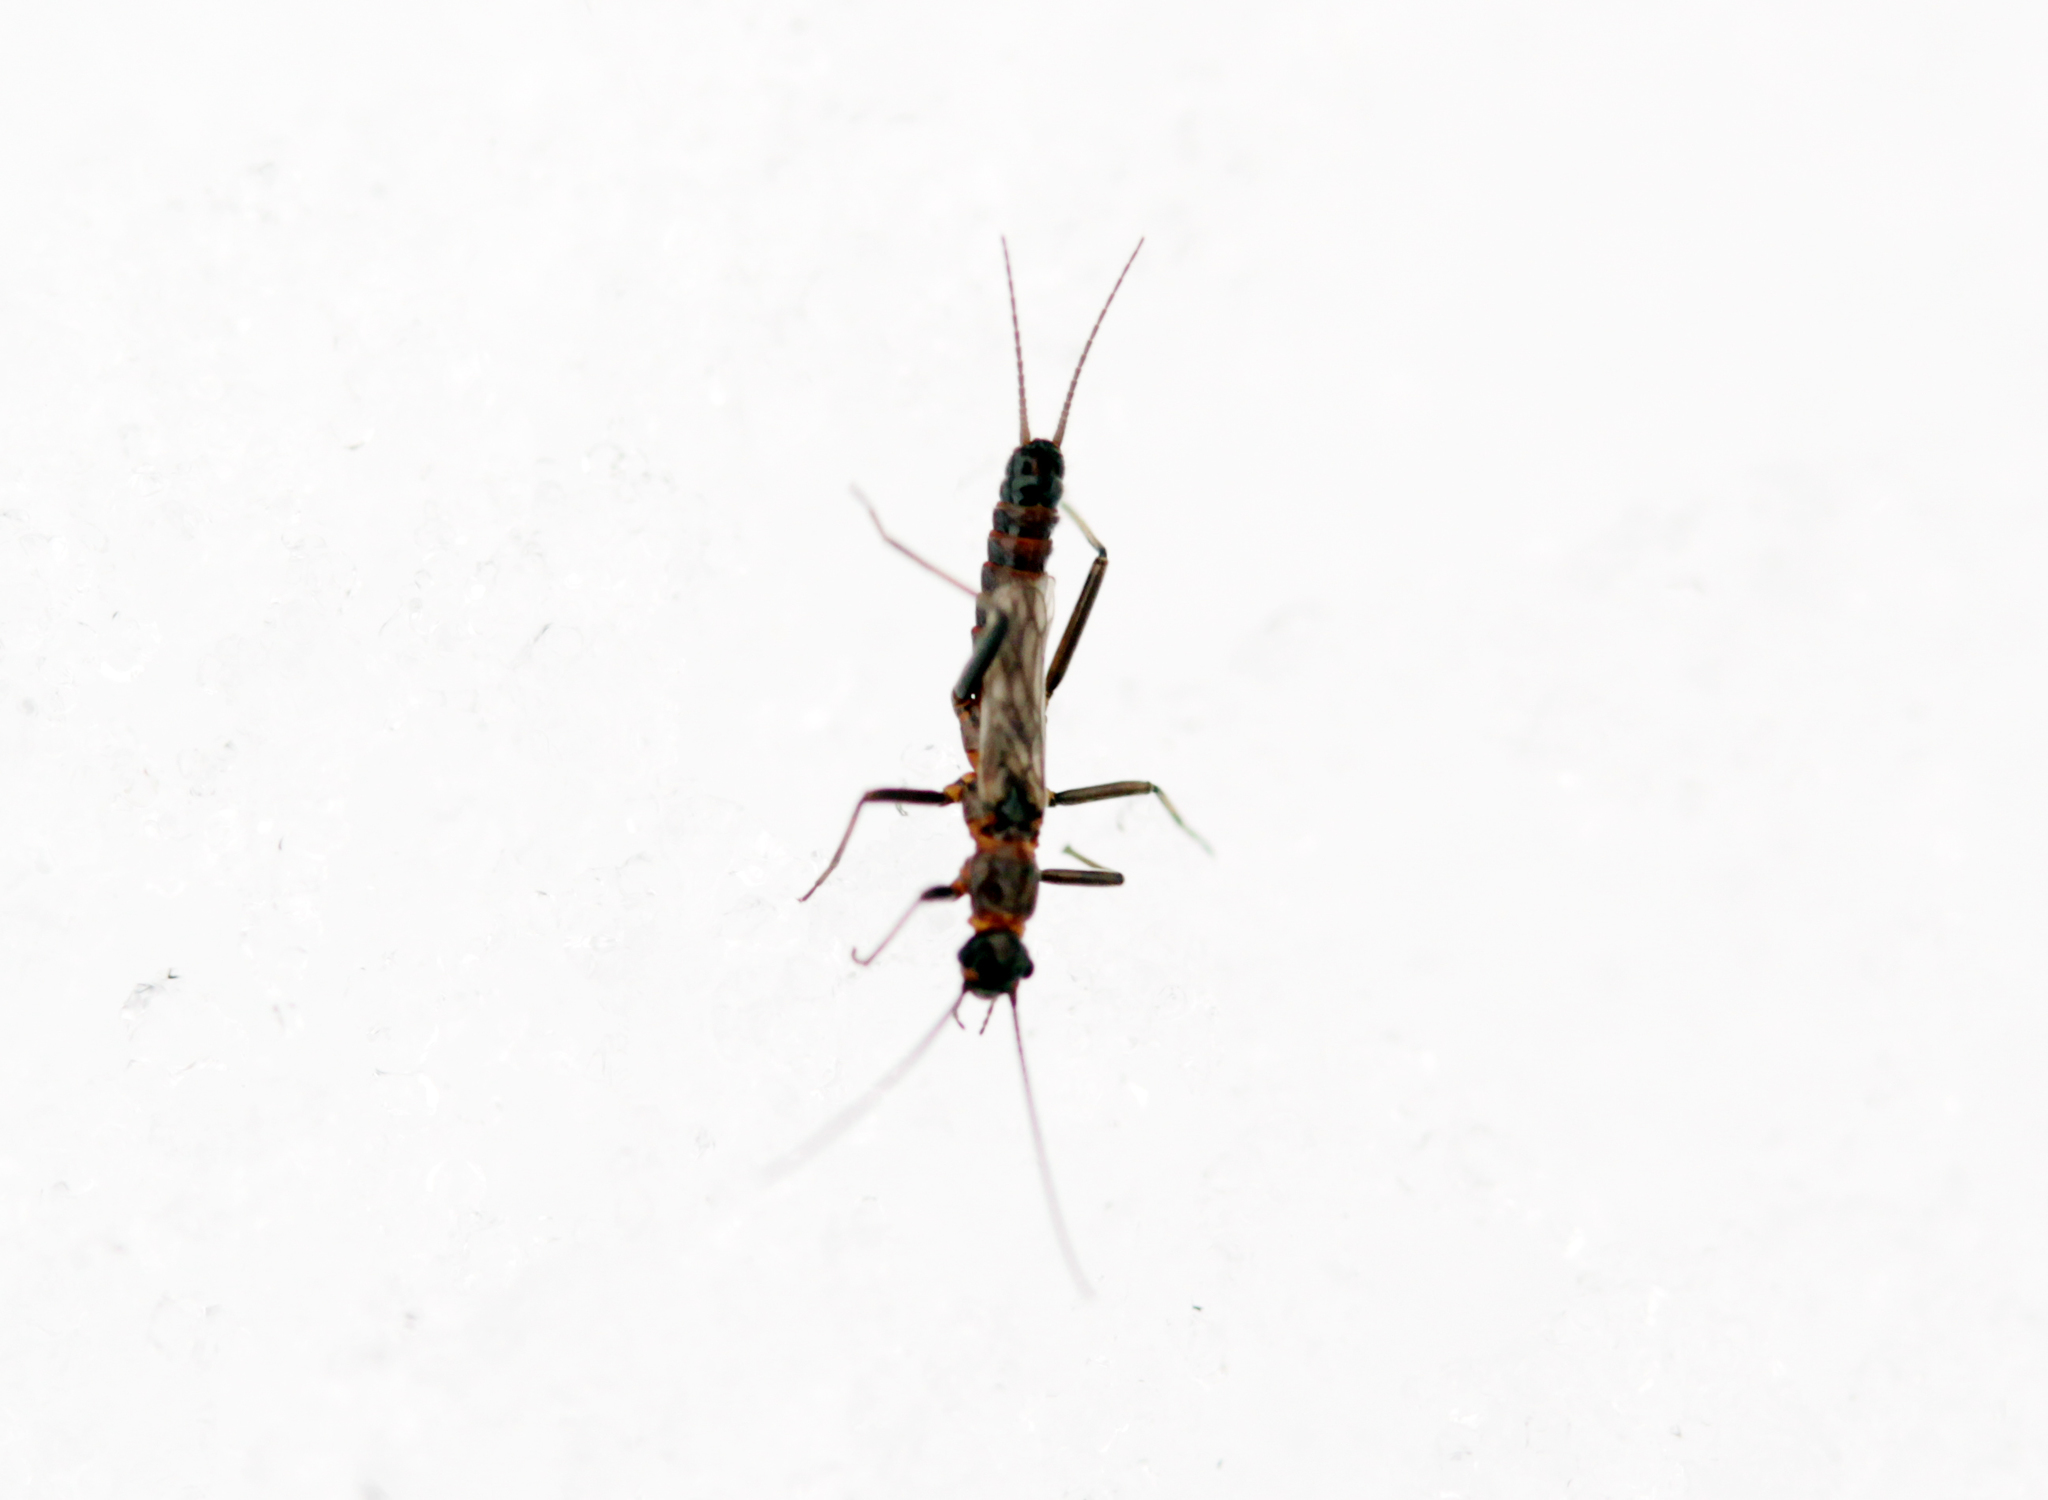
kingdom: Animalia
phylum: Arthropoda
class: Insecta
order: Plecoptera
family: Capniidae
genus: Allocapnia
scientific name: Allocapnia
